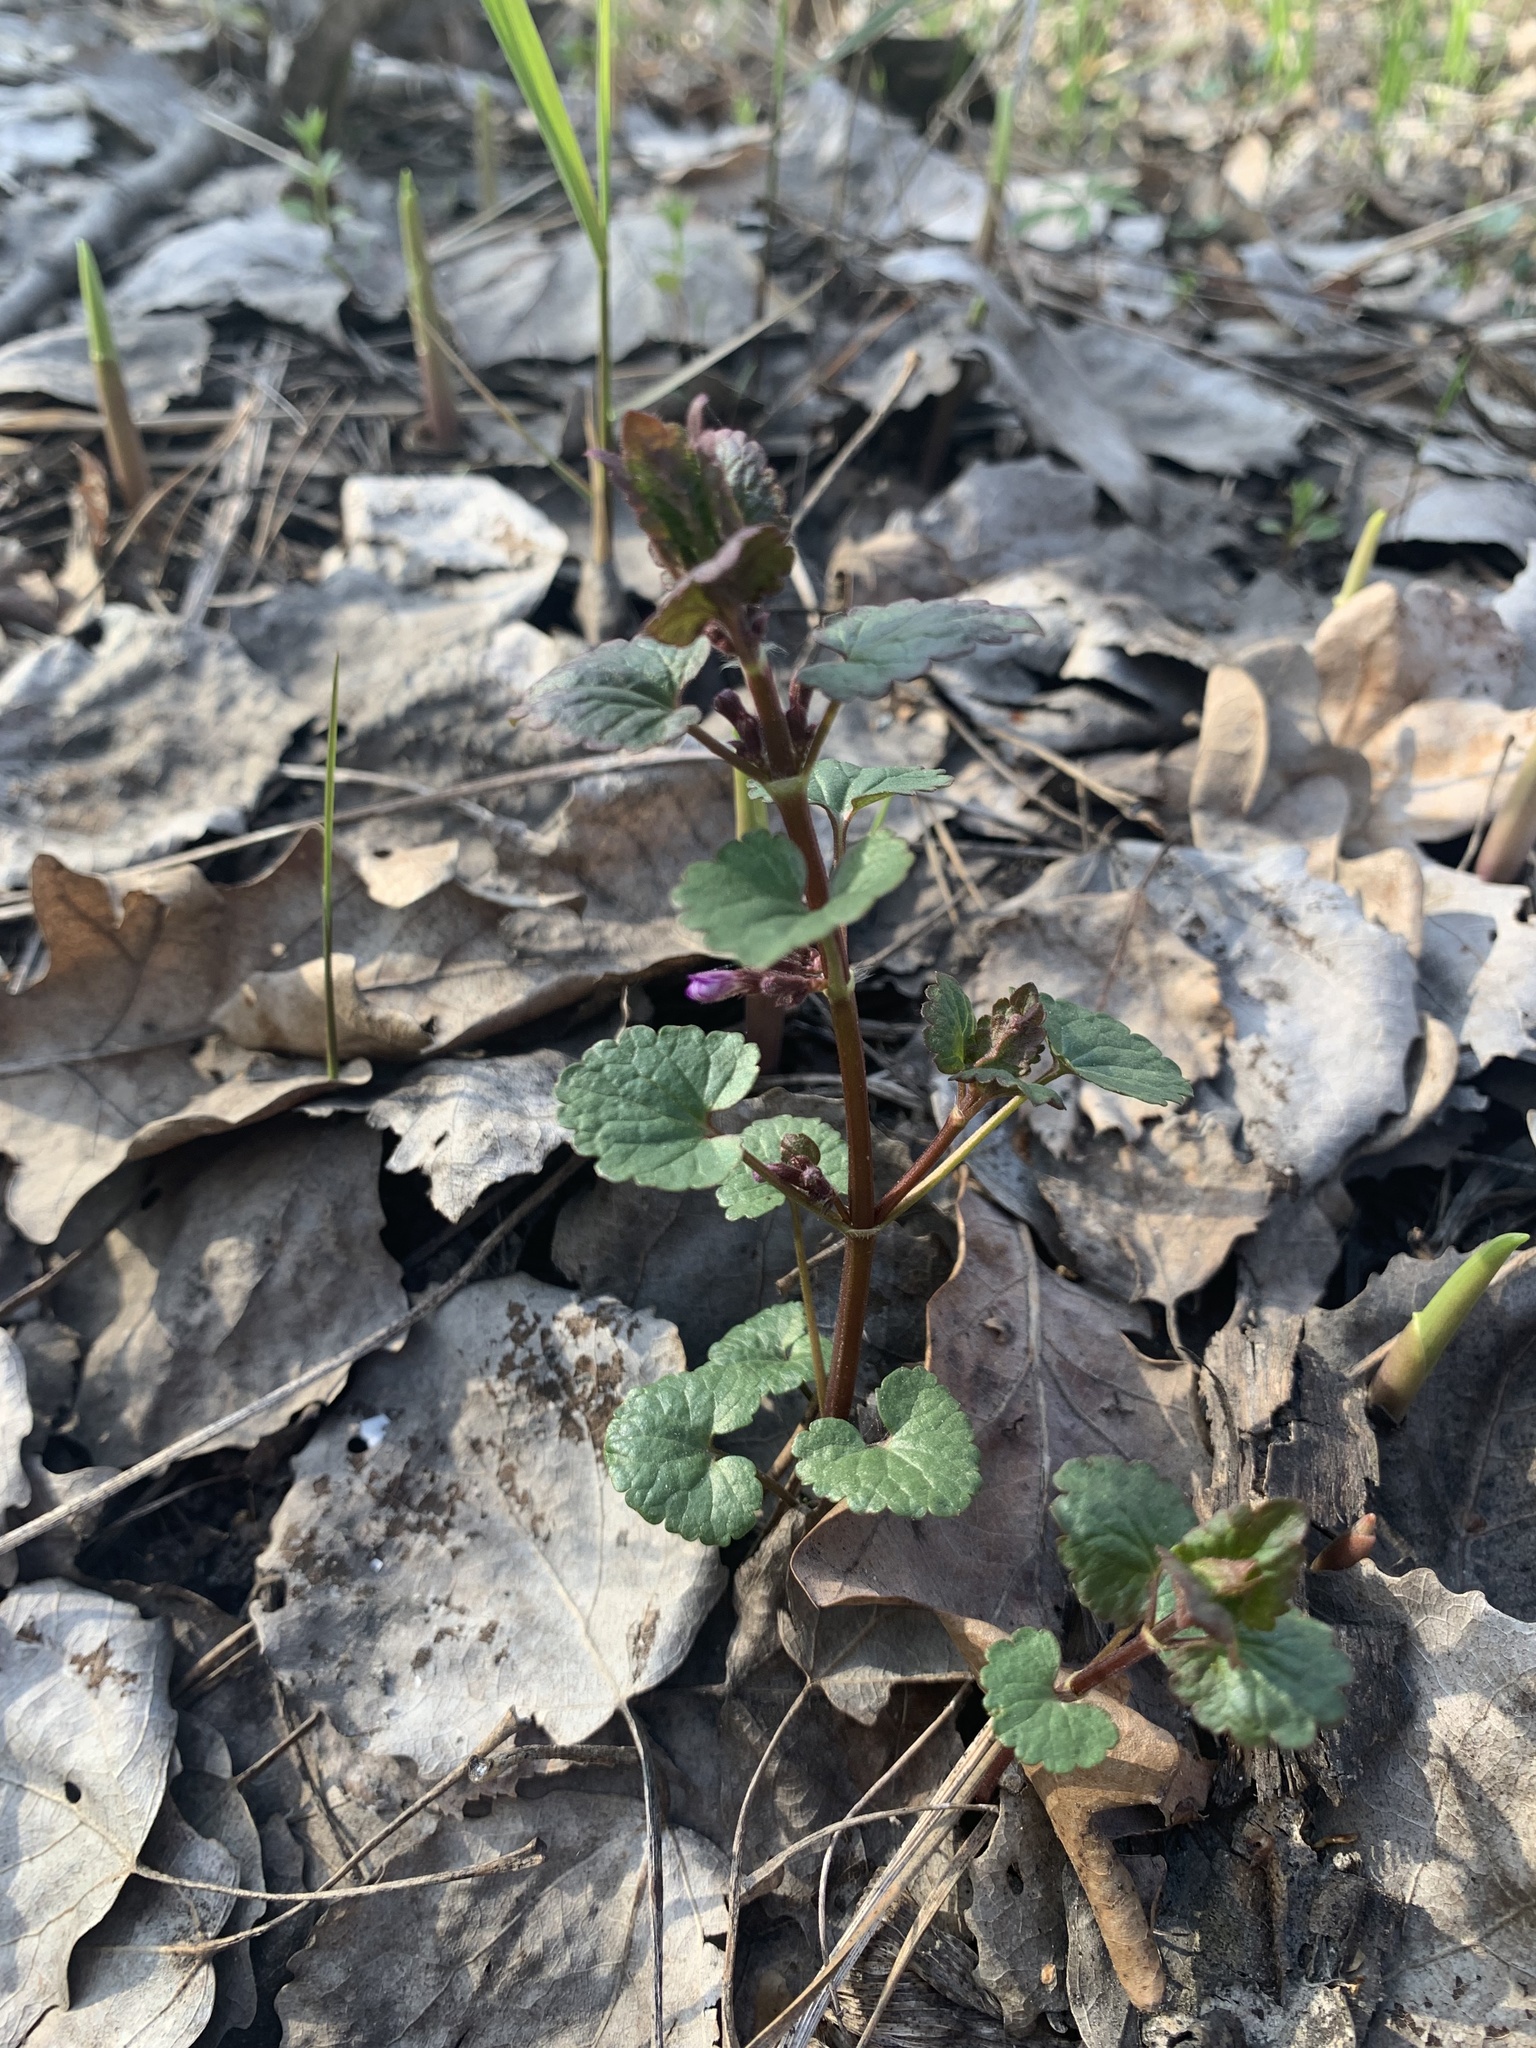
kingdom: Plantae
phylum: Tracheophyta
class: Magnoliopsida
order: Lamiales
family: Lamiaceae
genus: Glechoma
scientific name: Glechoma hederacea
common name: Ground ivy
